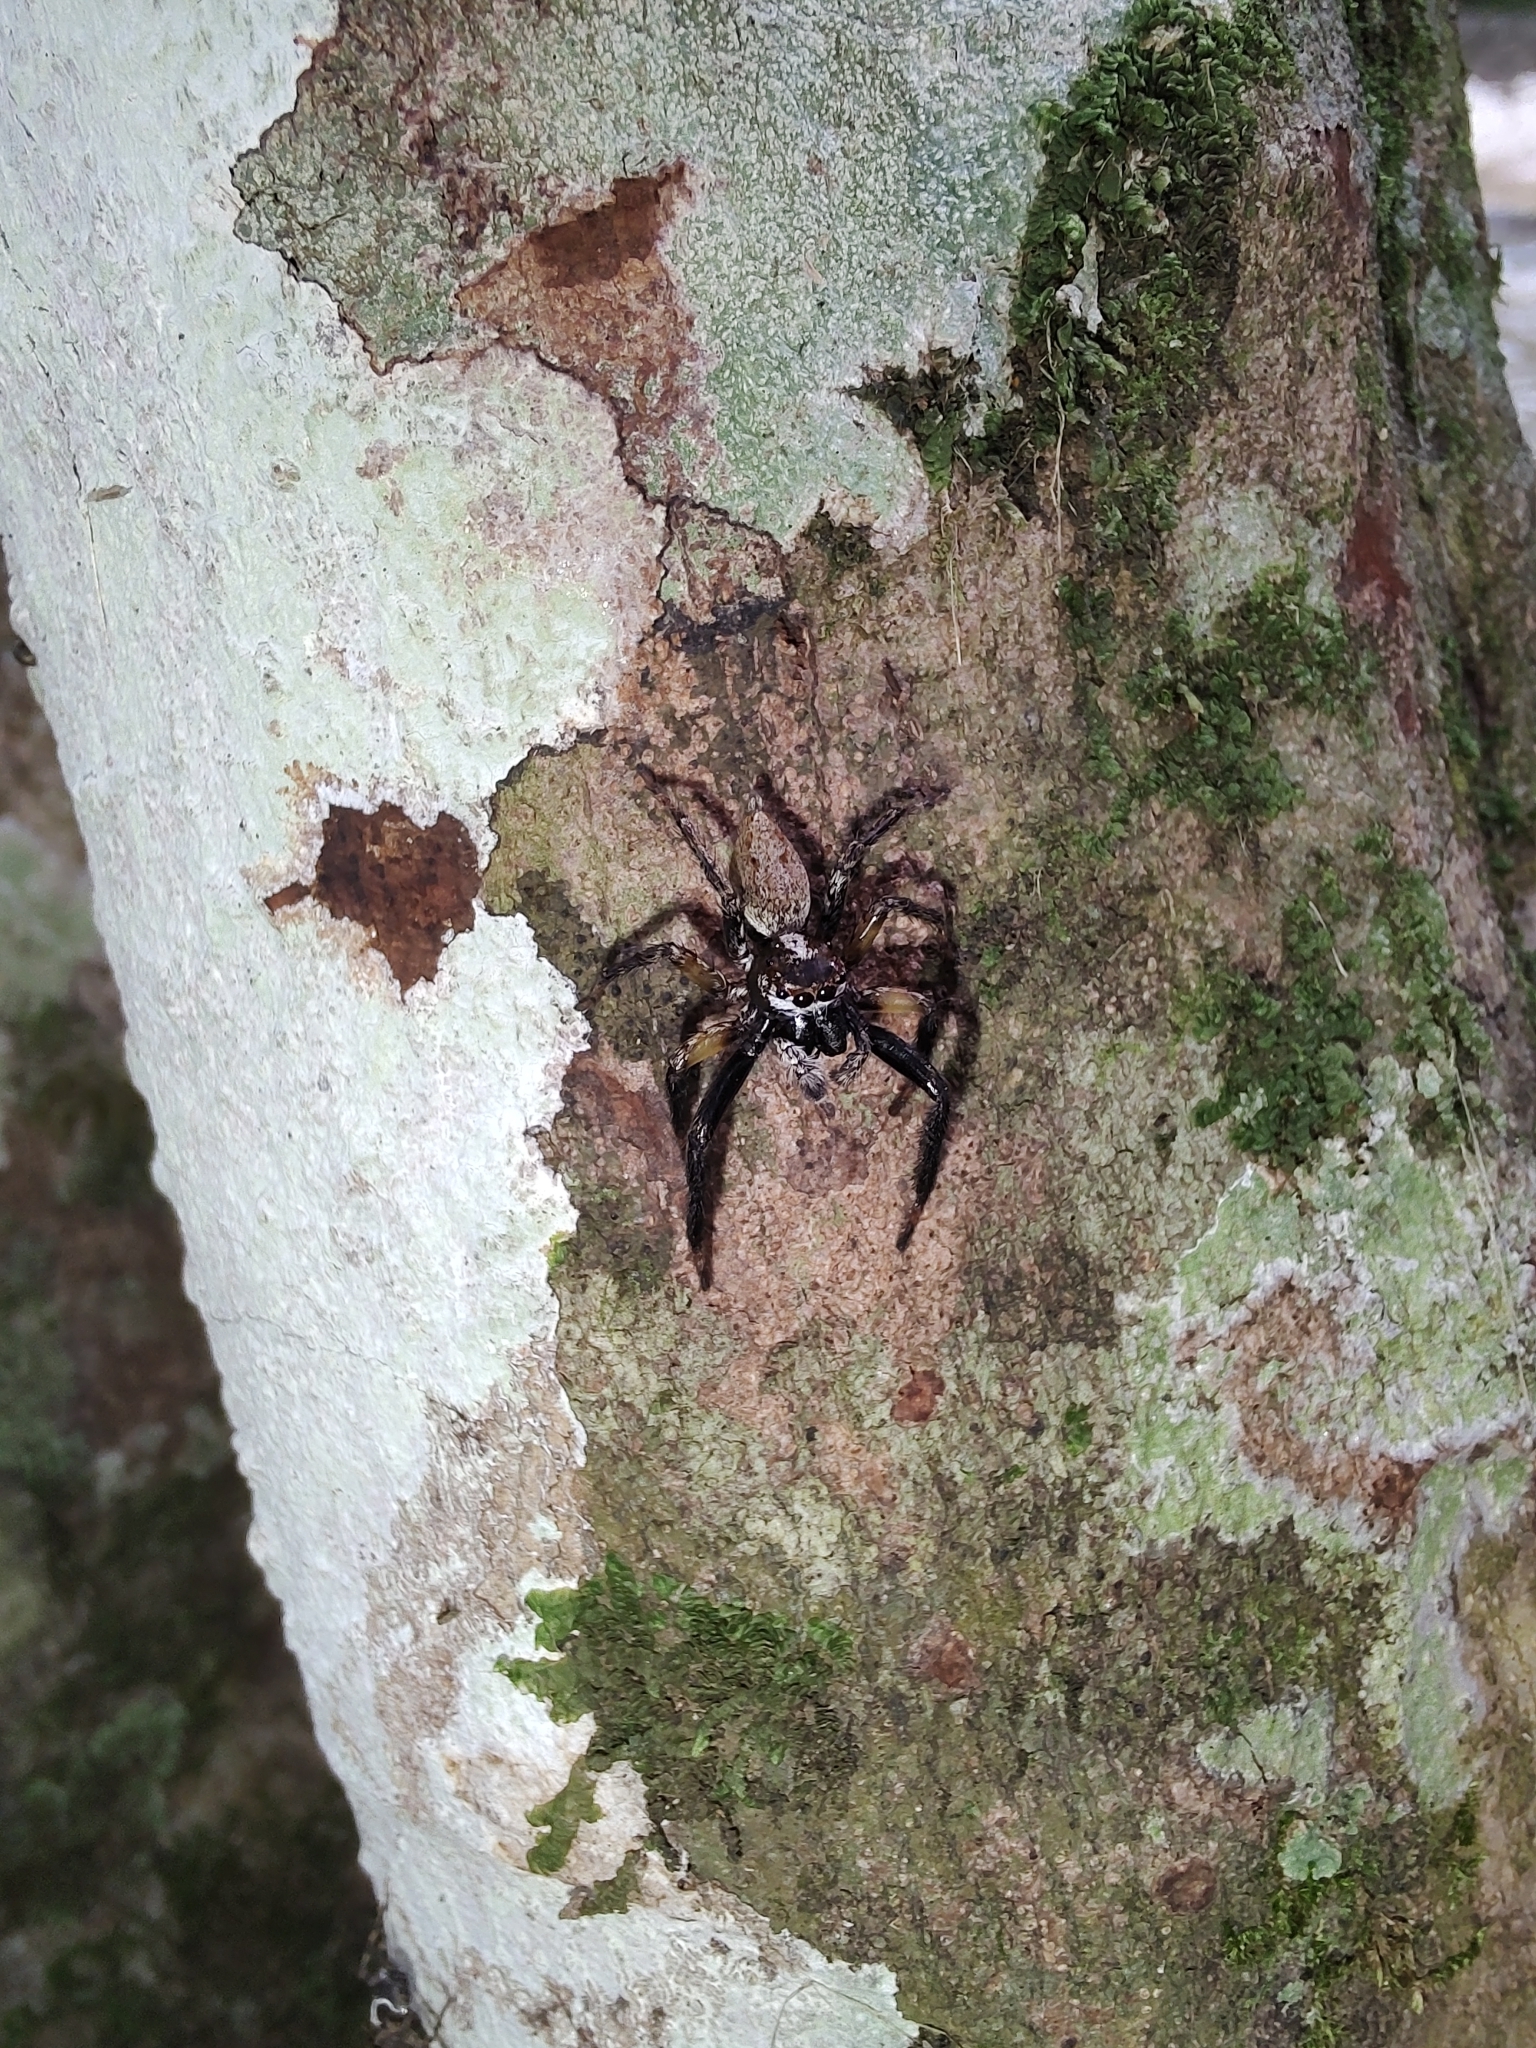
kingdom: Animalia
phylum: Arthropoda
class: Arachnida
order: Araneae
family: Salticidae
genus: Asaphobelis
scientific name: Asaphobelis physonychus
